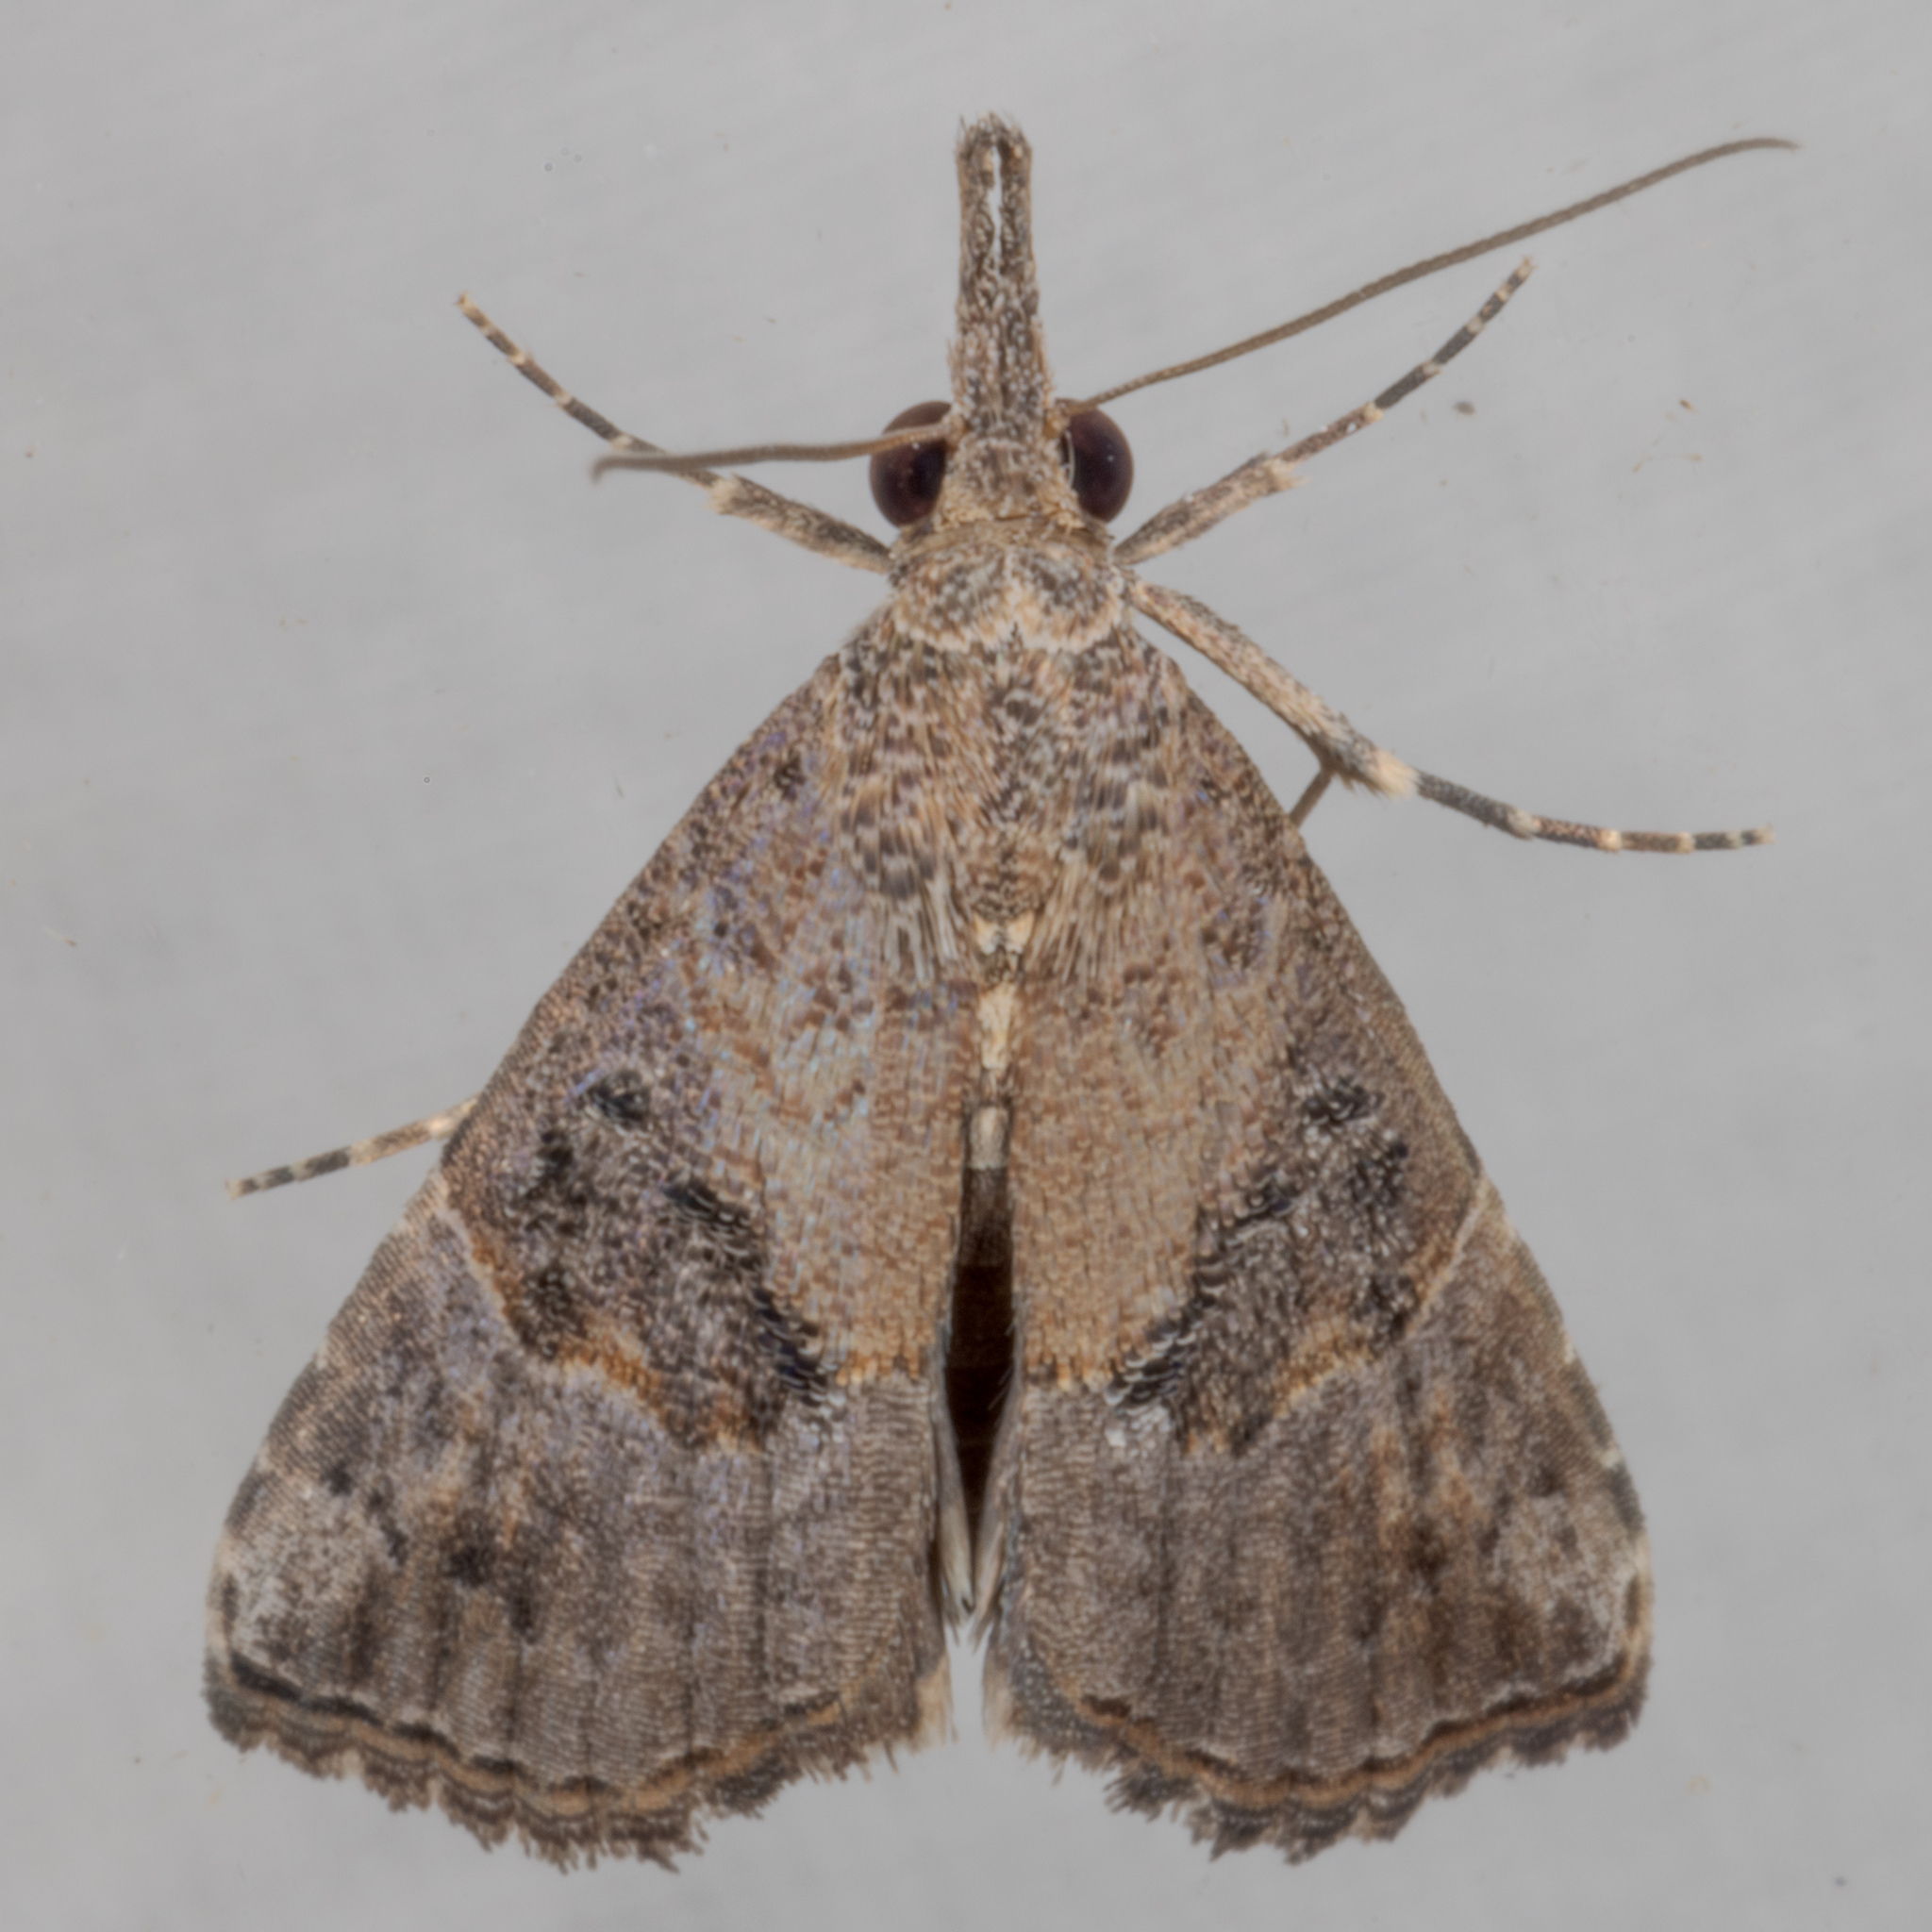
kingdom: Animalia
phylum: Arthropoda
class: Insecta
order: Lepidoptera
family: Erebidae
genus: Hypena
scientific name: Hypena minualis
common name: Sooty snout
